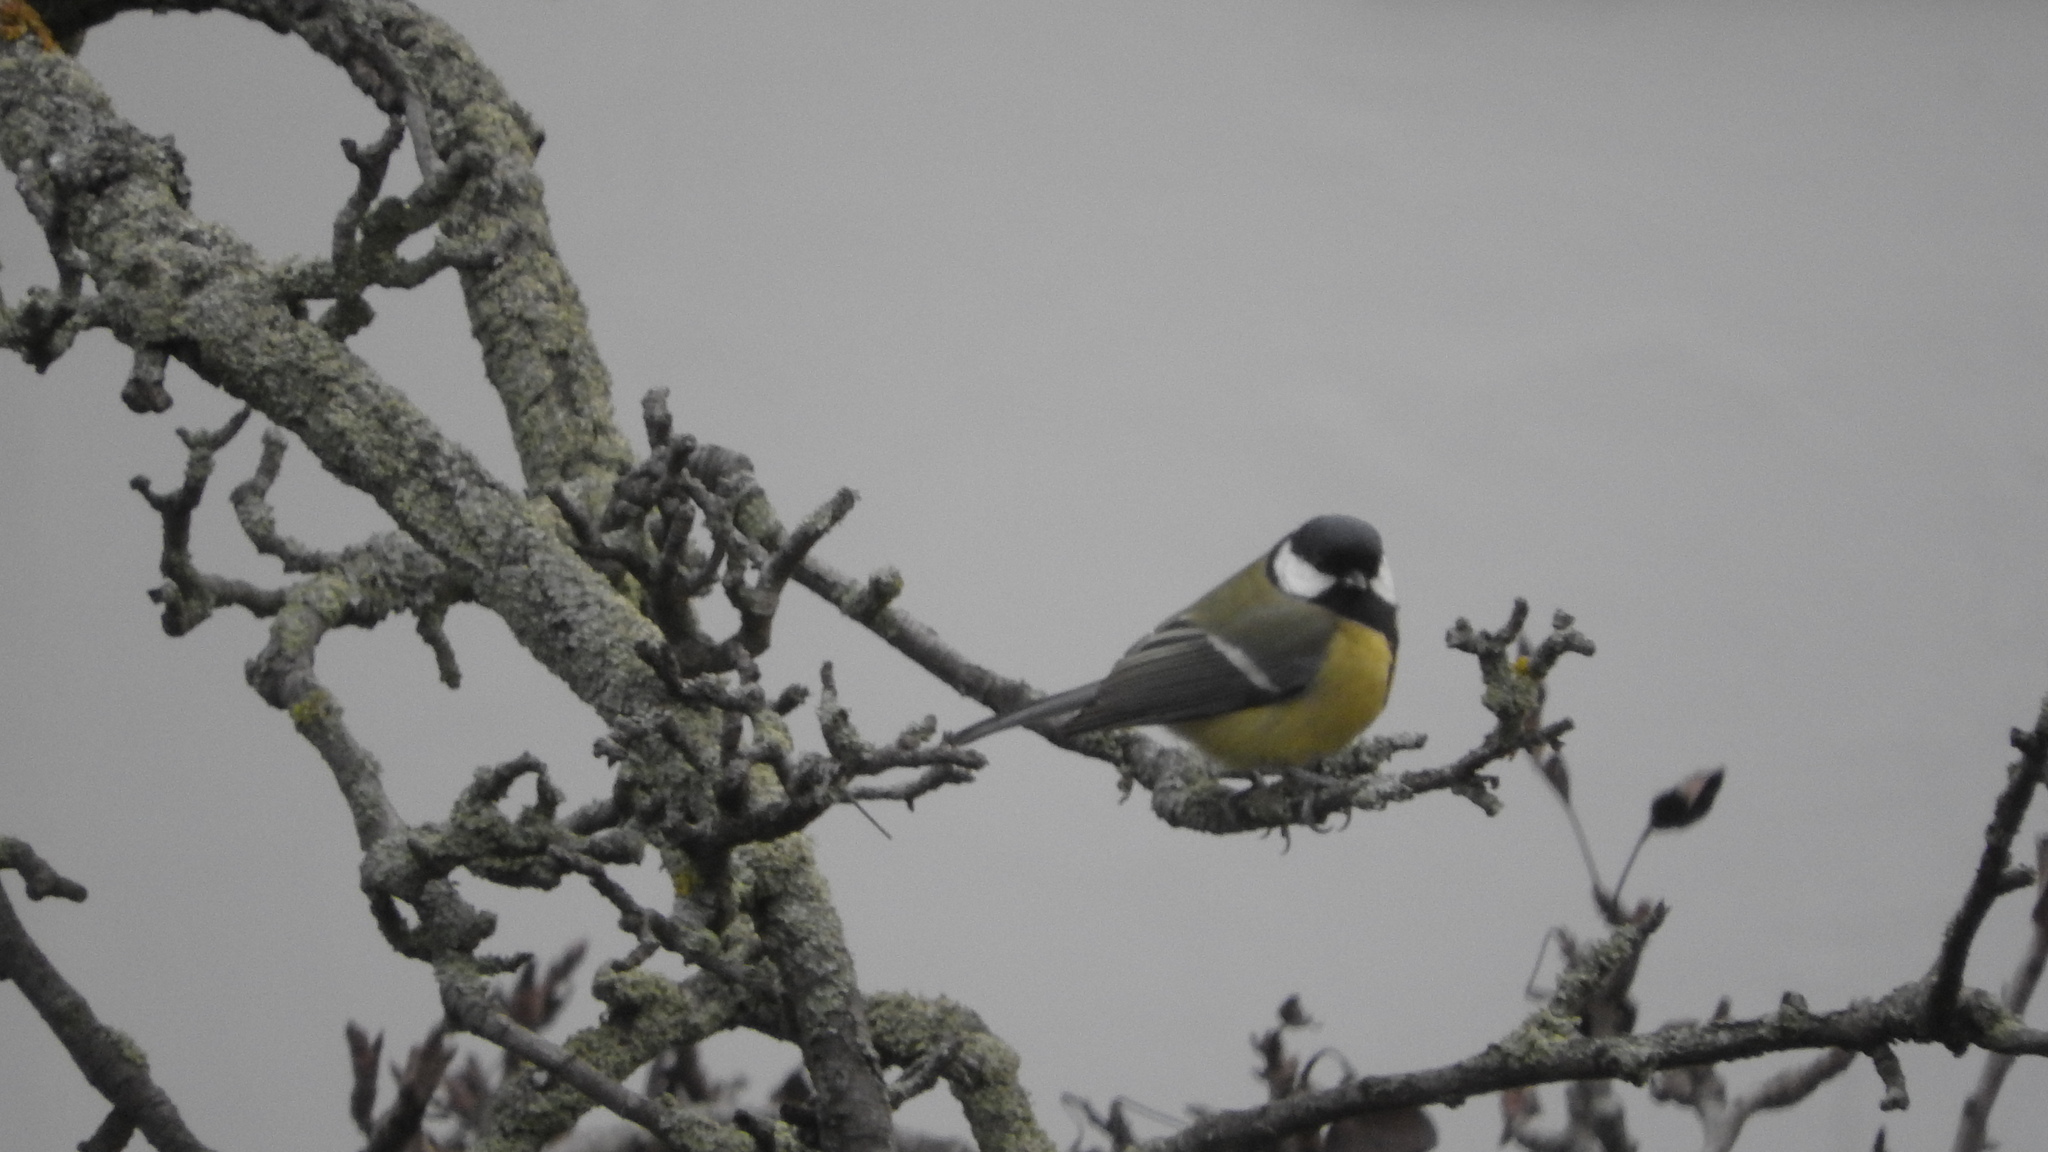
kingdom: Animalia
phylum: Chordata
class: Aves
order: Passeriformes
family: Paridae
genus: Parus
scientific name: Parus major
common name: Great tit
